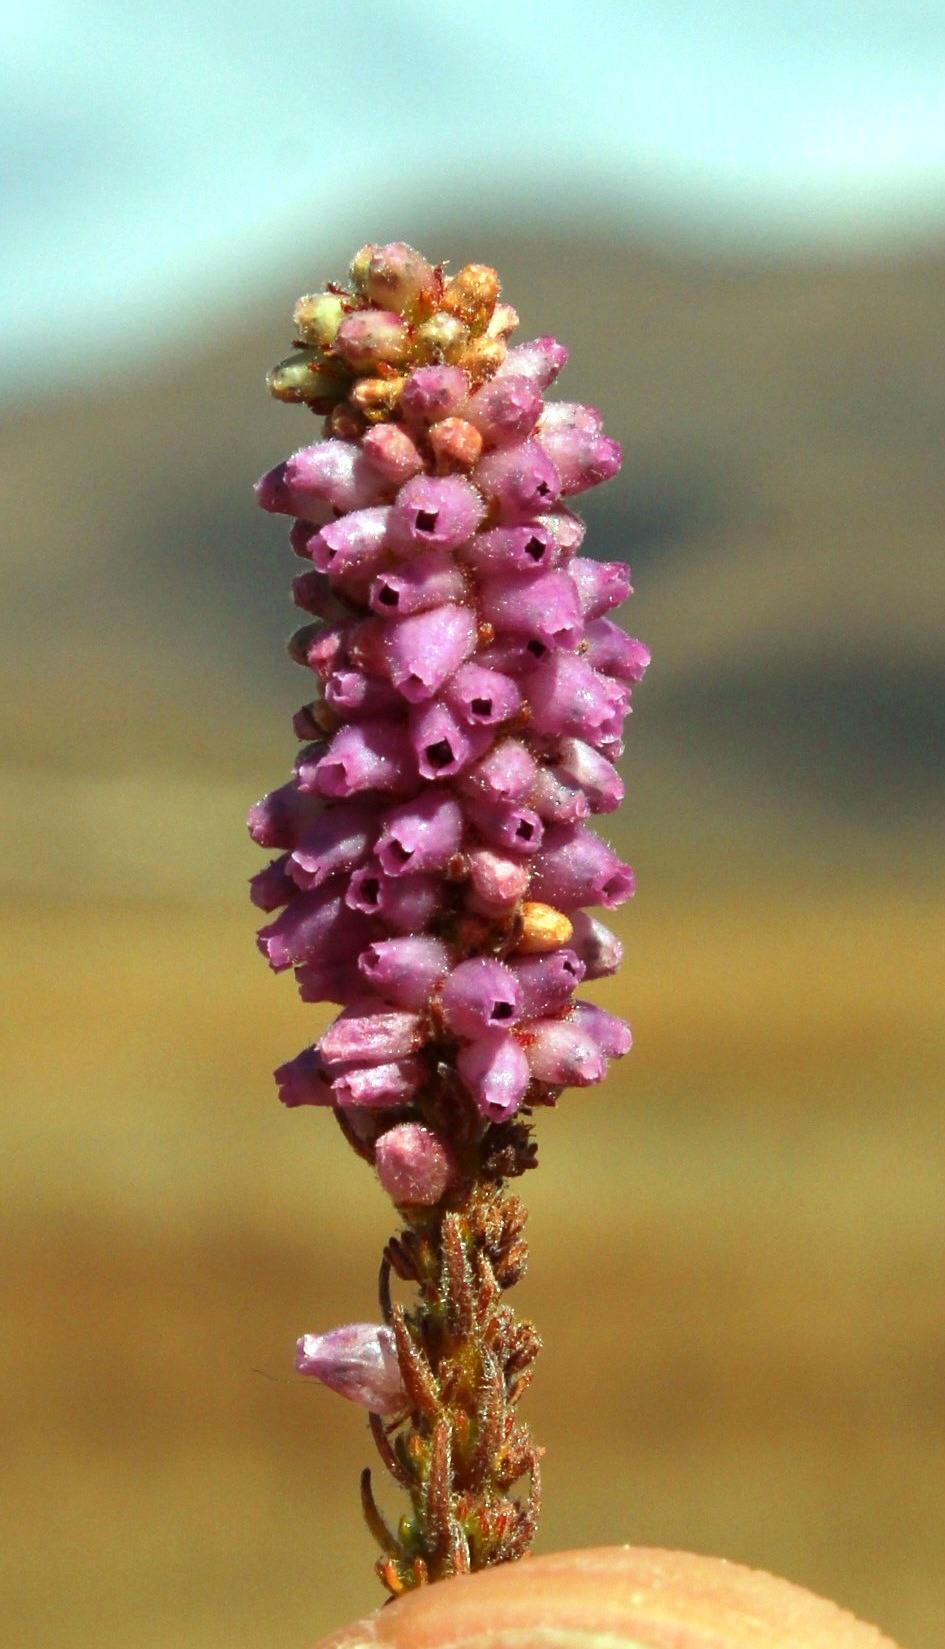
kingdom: Plantae
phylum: Tracheophyta
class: Magnoliopsida
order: Ericales
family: Ericaceae
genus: Erica
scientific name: Erica alopecurus
